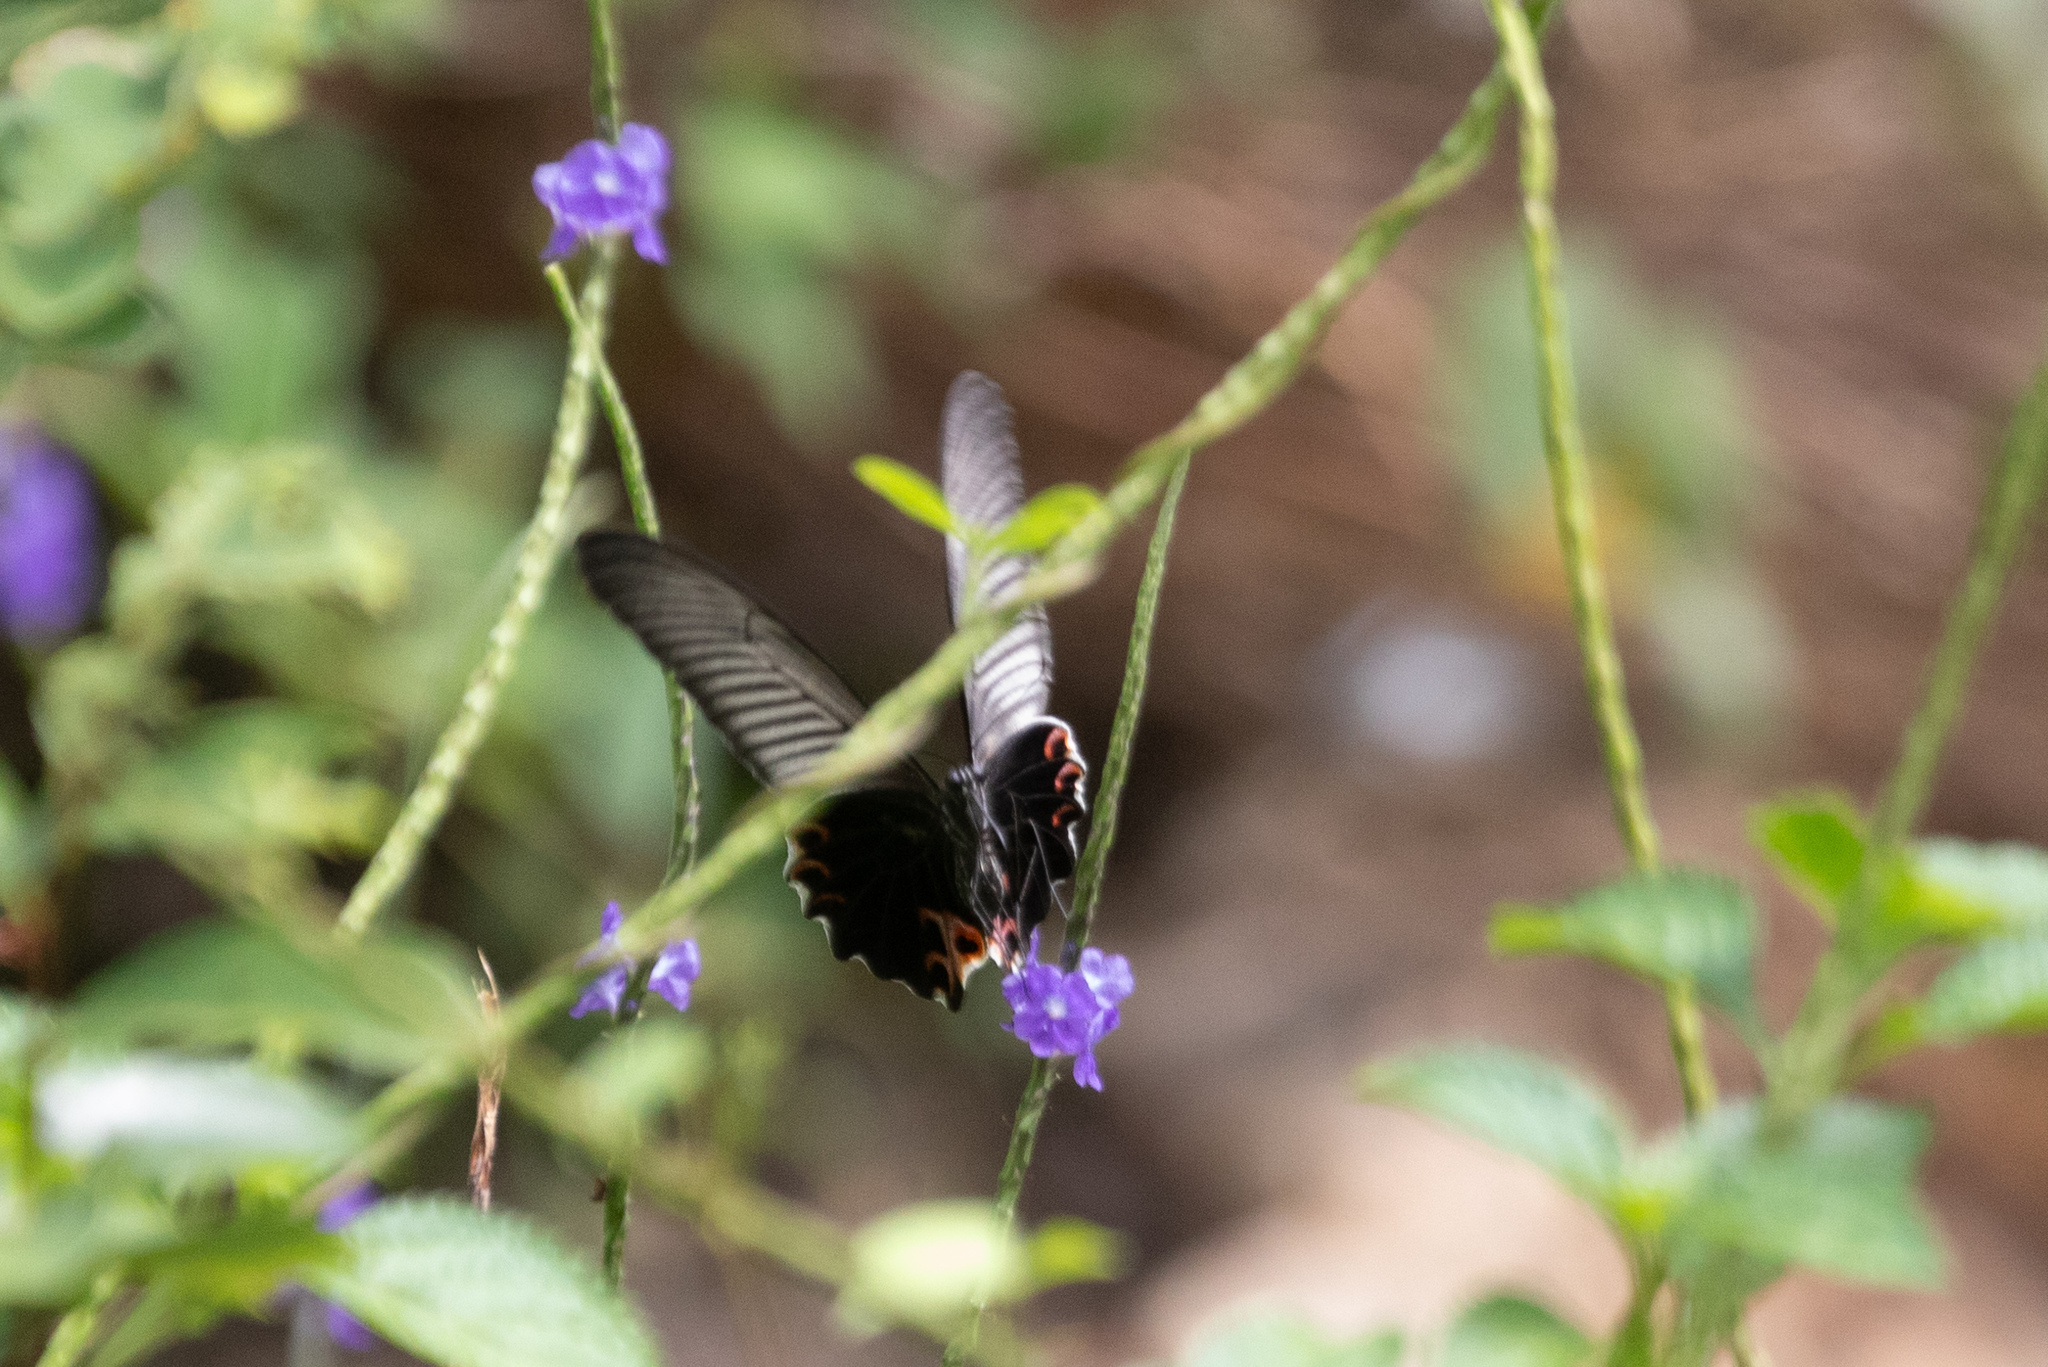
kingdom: Animalia
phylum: Arthropoda
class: Insecta
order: Lepidoptera
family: Papilionidae
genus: Papilio
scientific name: Papilio protenor
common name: Spangle
